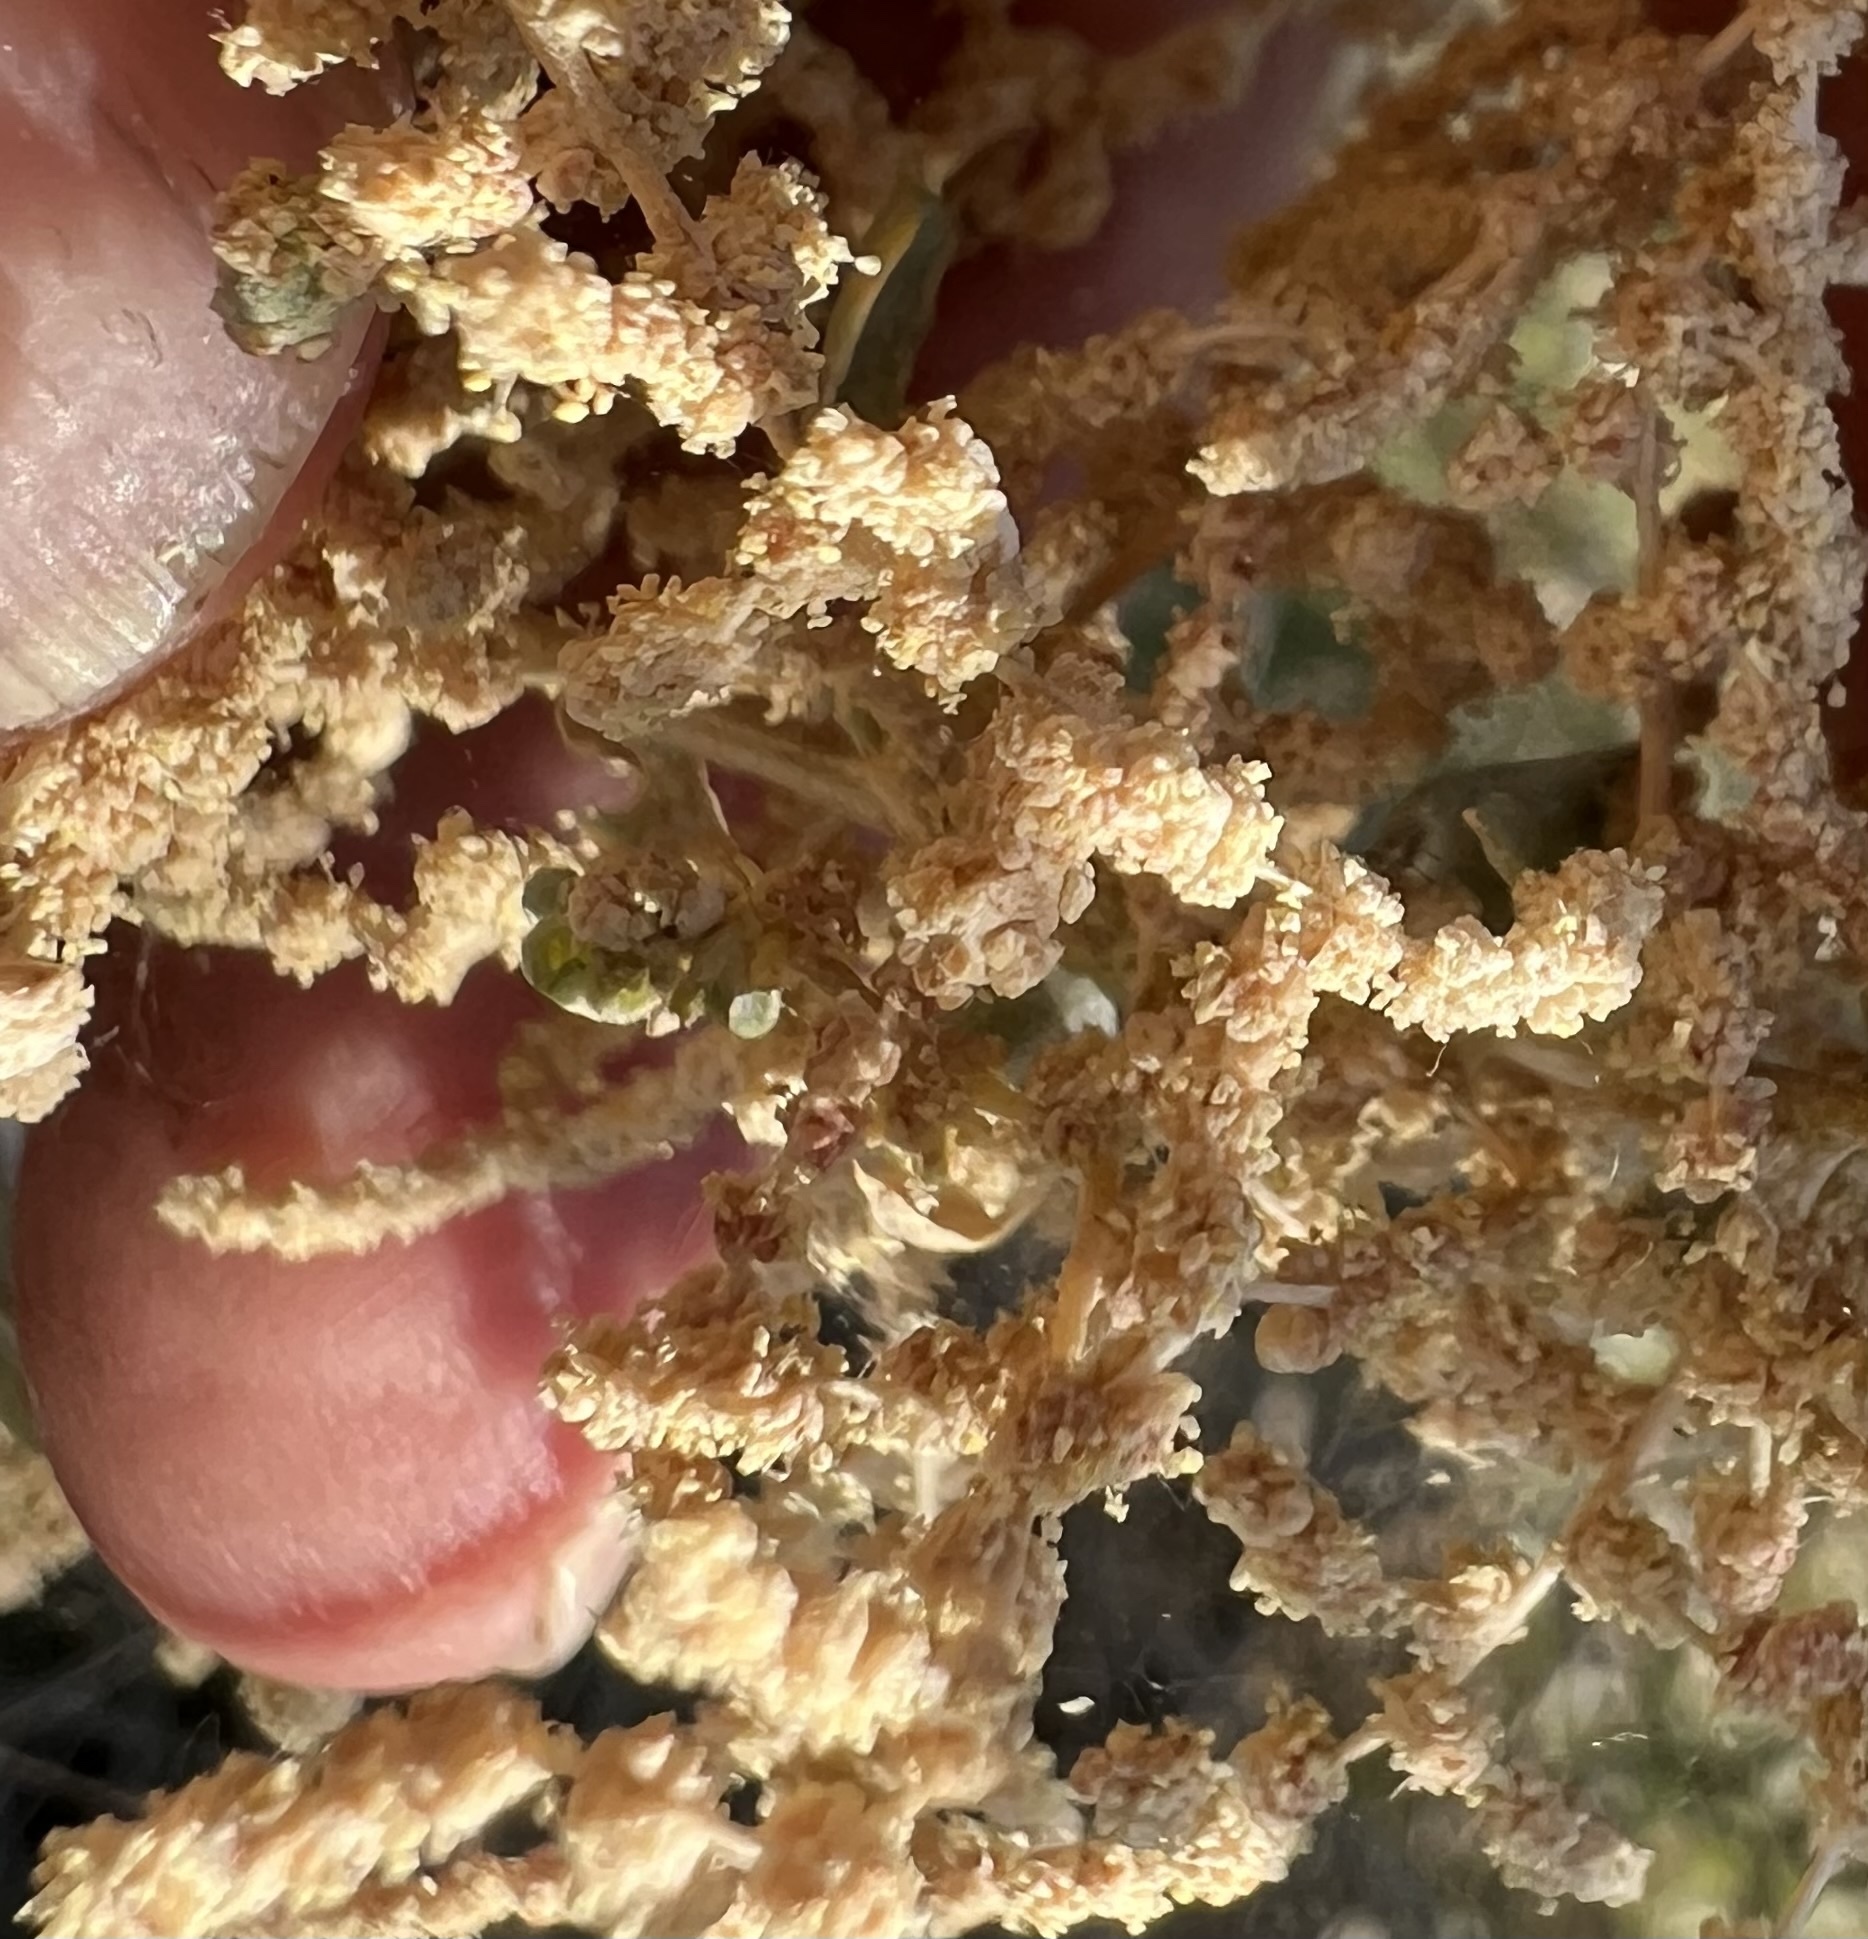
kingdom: Plantae
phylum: Tracheophyta
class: Magnoliopsida
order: Caryophyllales
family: Amaranthaceae
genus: Atriplex
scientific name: Atriplex torreyi
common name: Torrey's saltbush
